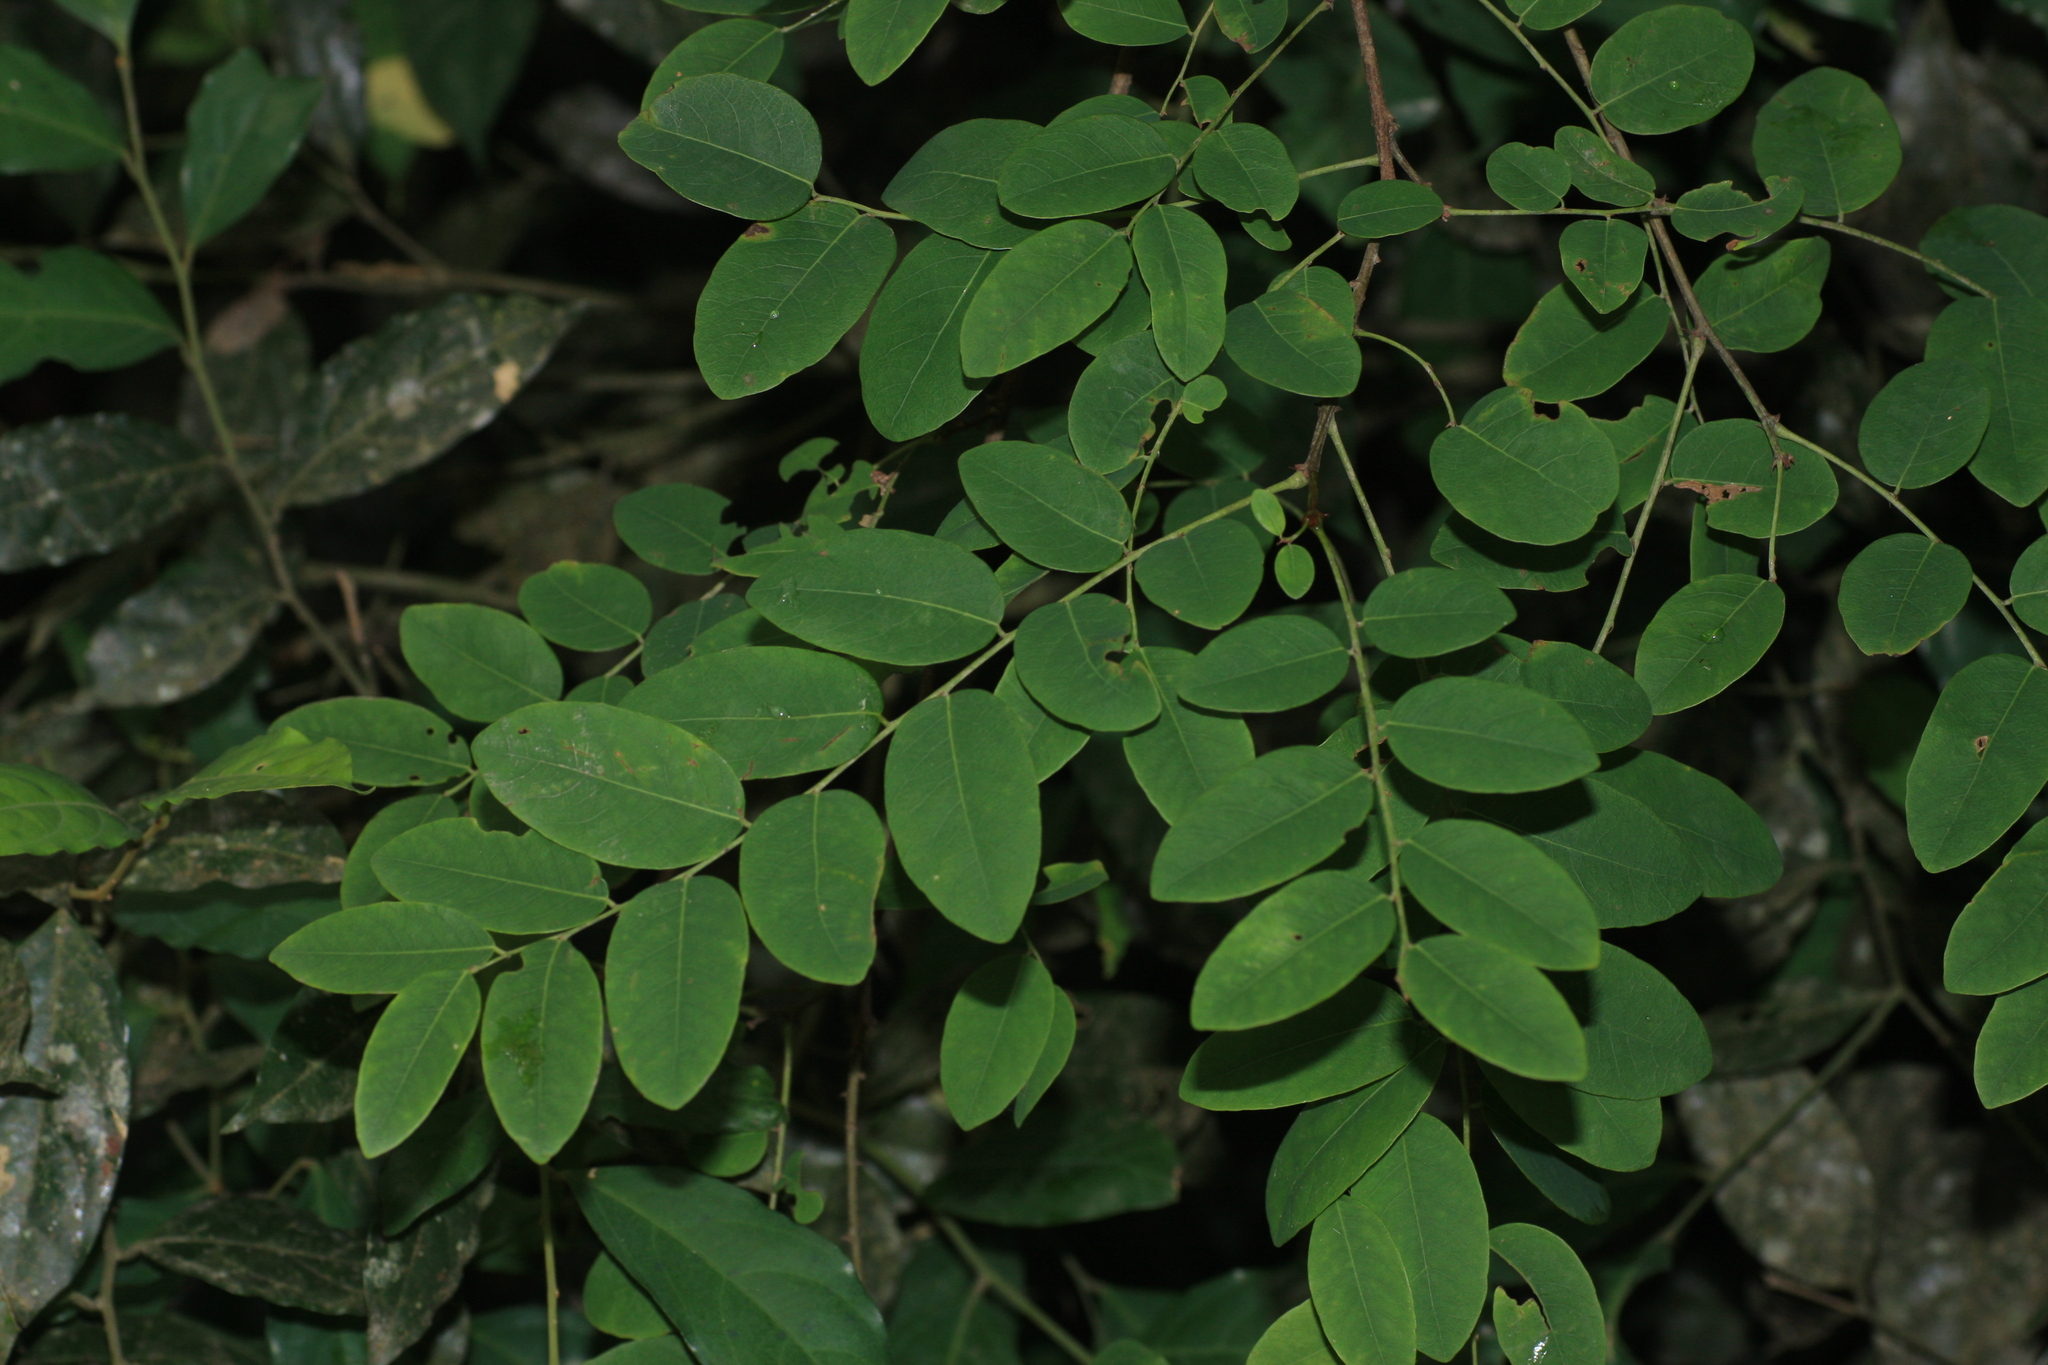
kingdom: Plantae
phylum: Tracheophyta
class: Magnoliopsida
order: Malpighiales
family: Phyllanthaceae
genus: Breynia
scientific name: Breynia vitis-idaea
